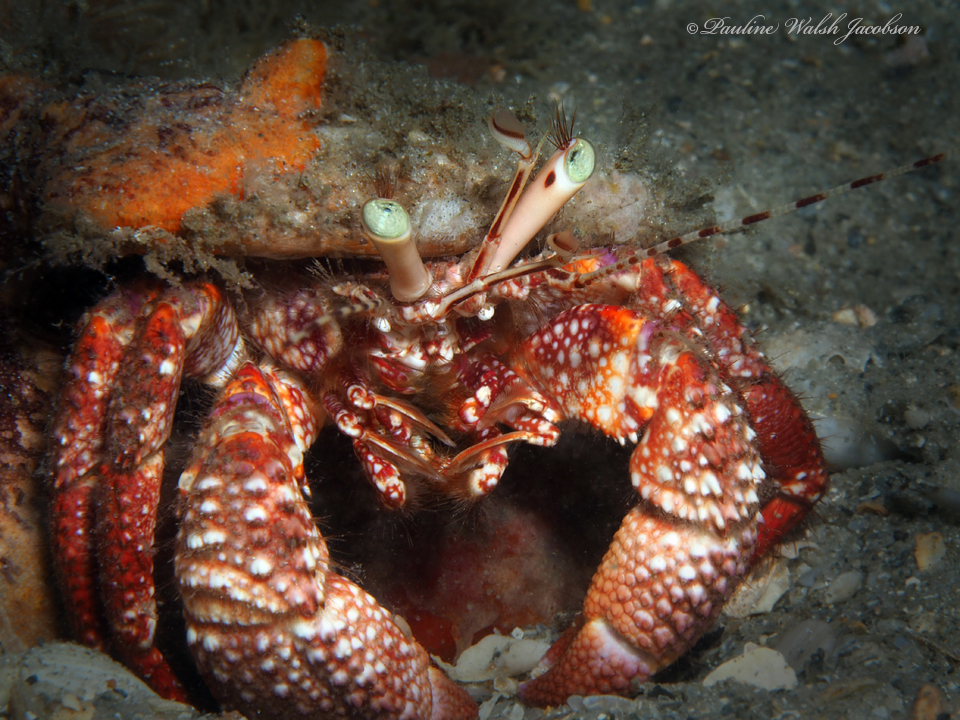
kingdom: Animalia
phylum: Arthropoda
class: Malacostraca
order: Decapoda
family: Diogenidae
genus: Petrochirus
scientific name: Petrochirus diogenes
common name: Giant hermit crab
